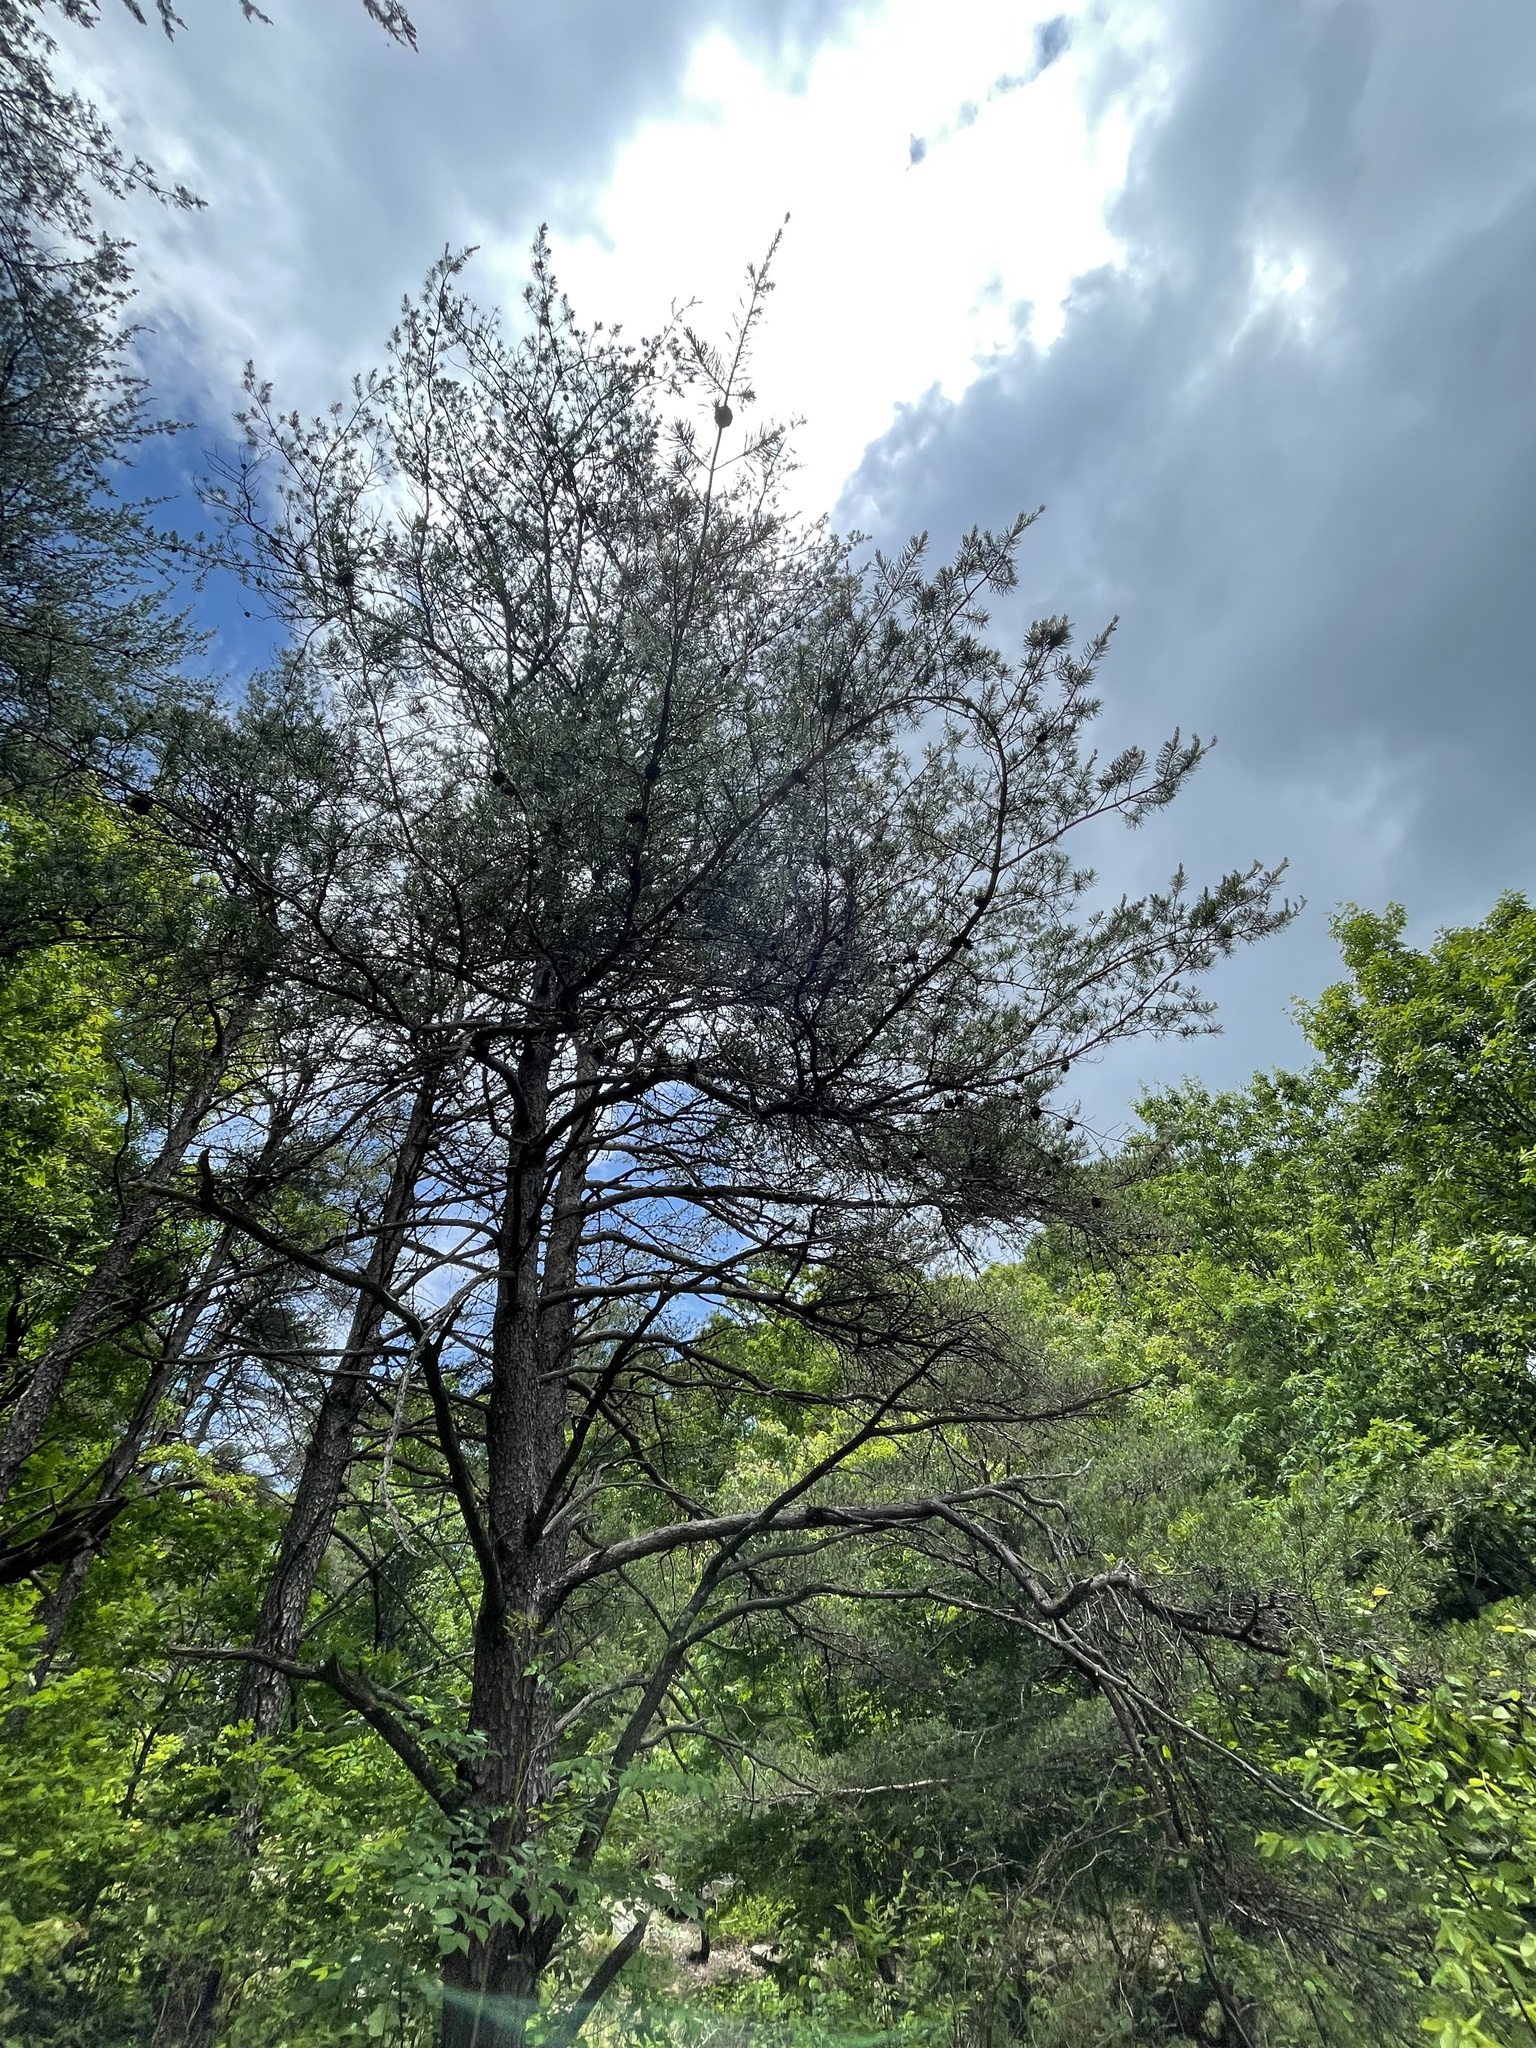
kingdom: Plantae
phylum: Tracheophyta
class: Pinopsida
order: Pinales
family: Pinaceae
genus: Pinus
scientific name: Pinus virginiana
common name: Scrub pine
